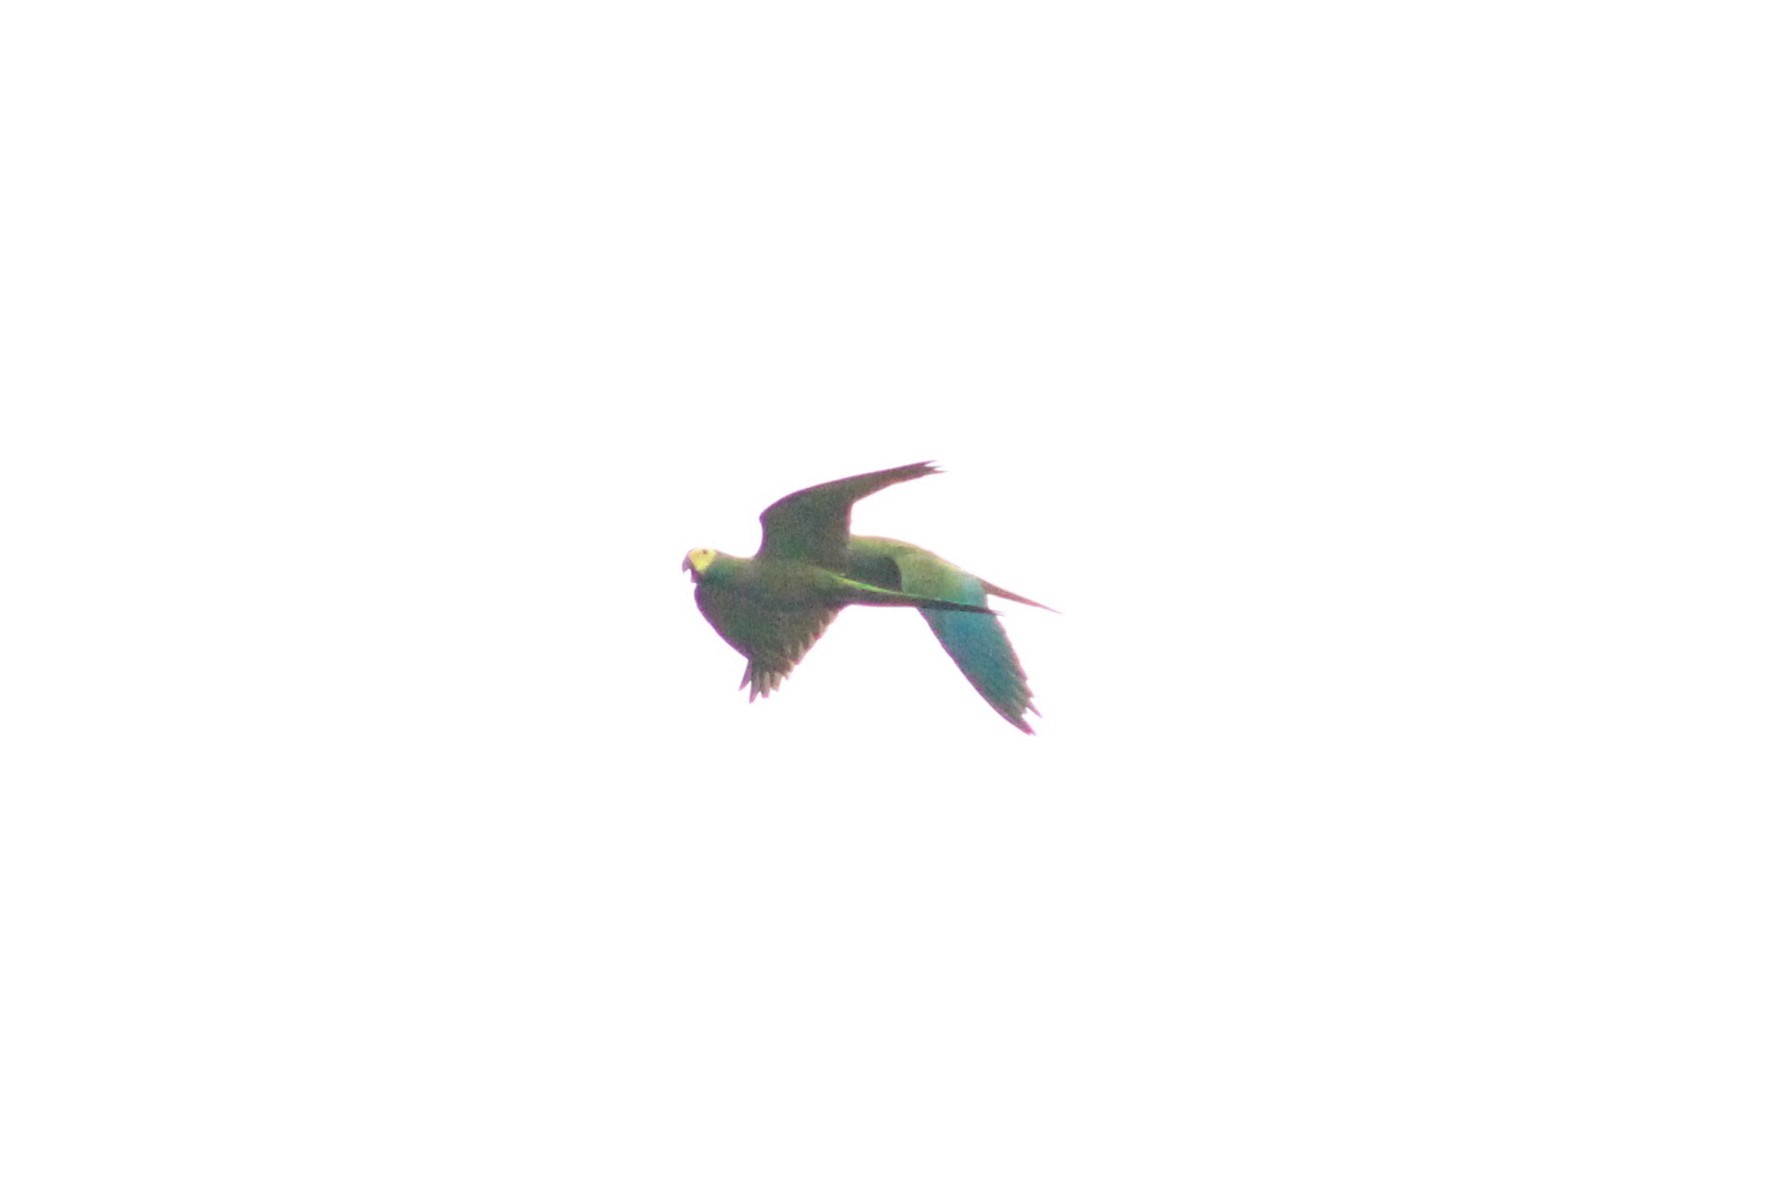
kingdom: Animalia
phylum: Chordata
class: Aves
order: Psittaciformes
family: Psittacidae
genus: Orthopsittaca
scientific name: Orthopsittaca manilata
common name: Red-bellied macaw
